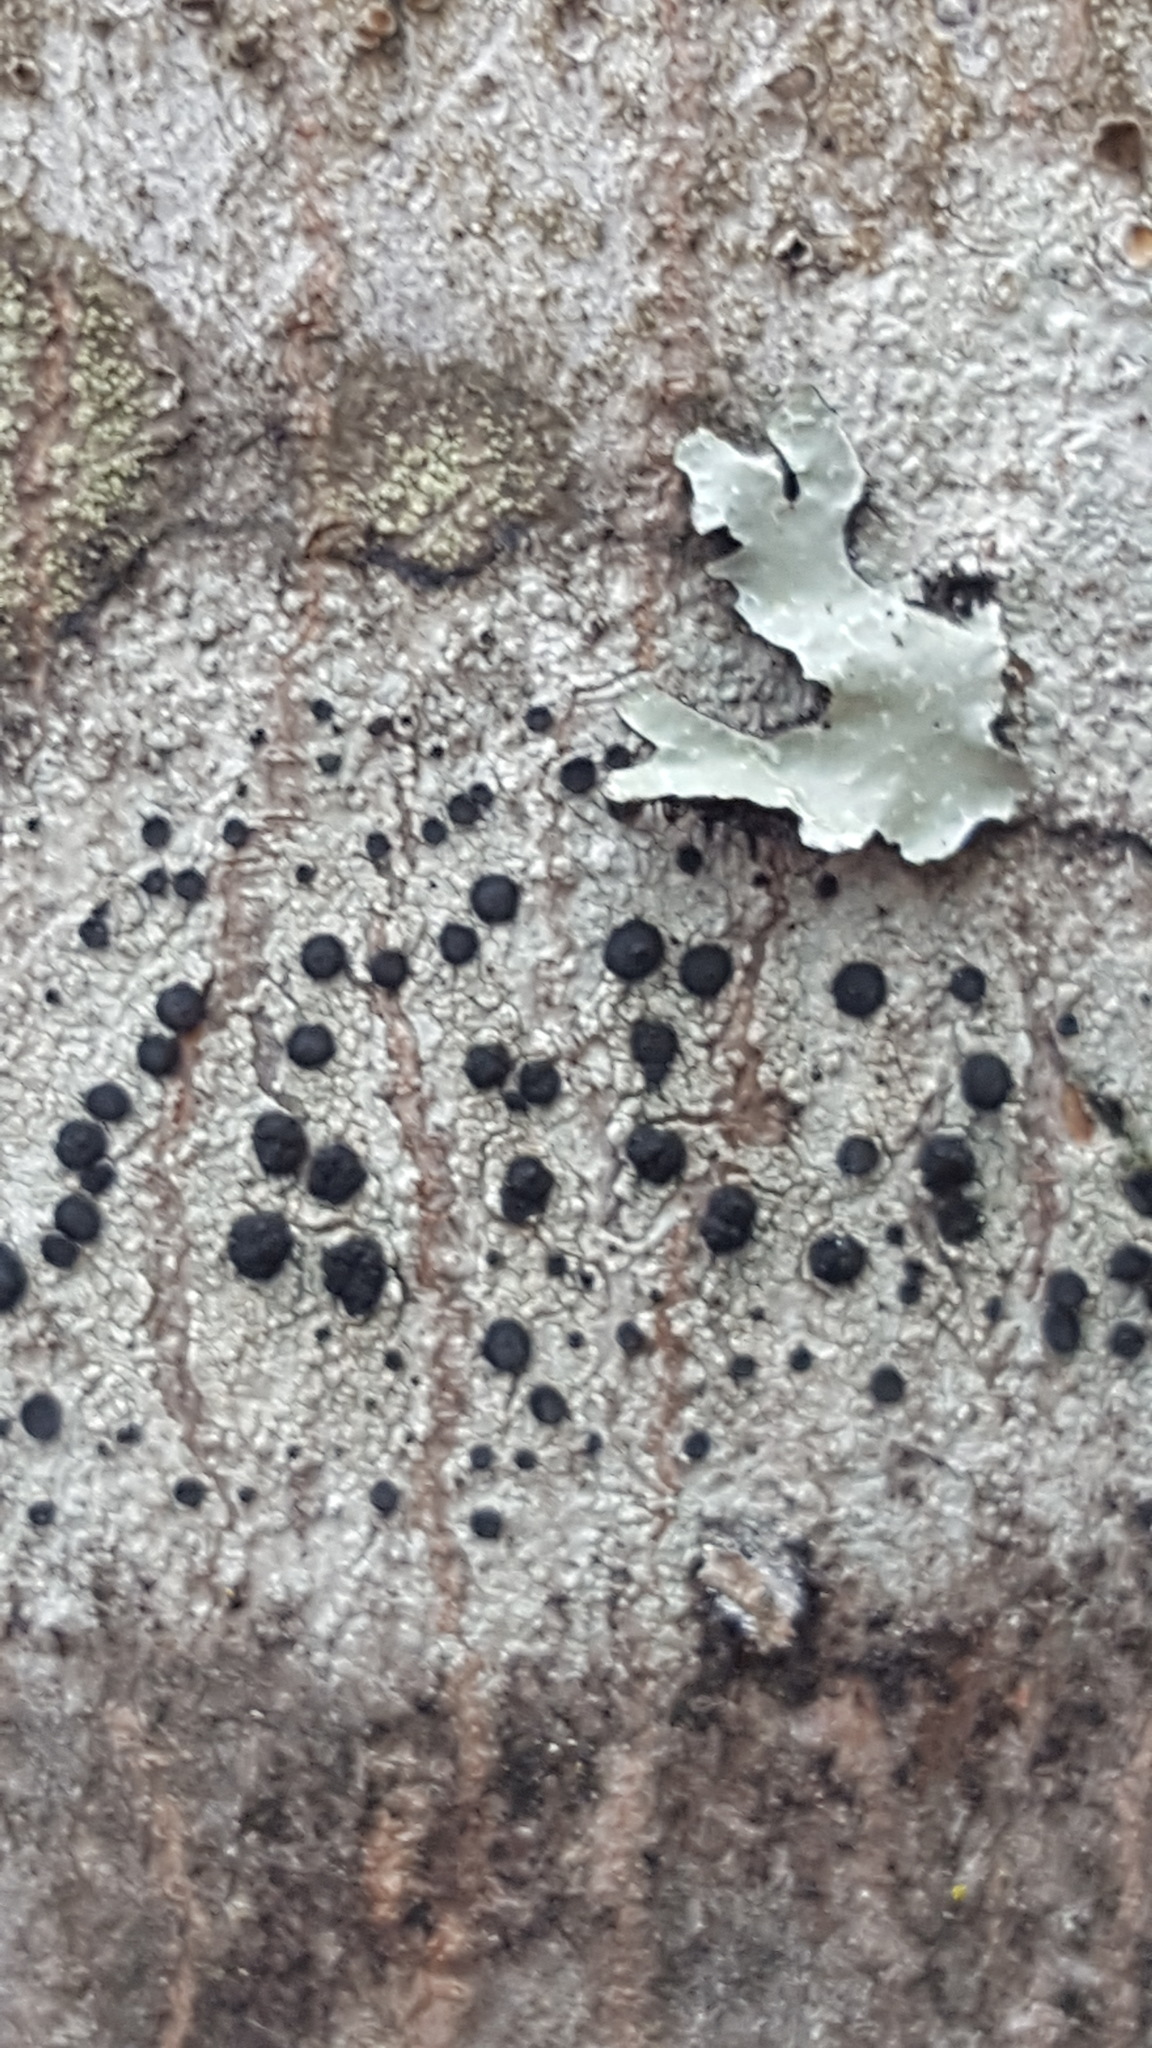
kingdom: Fungi
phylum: Ascomycota
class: Lecanoromycetes
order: Caliciales
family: Caliciaceae
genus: Buellia
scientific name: Buellia erubescens
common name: Common button lichen
